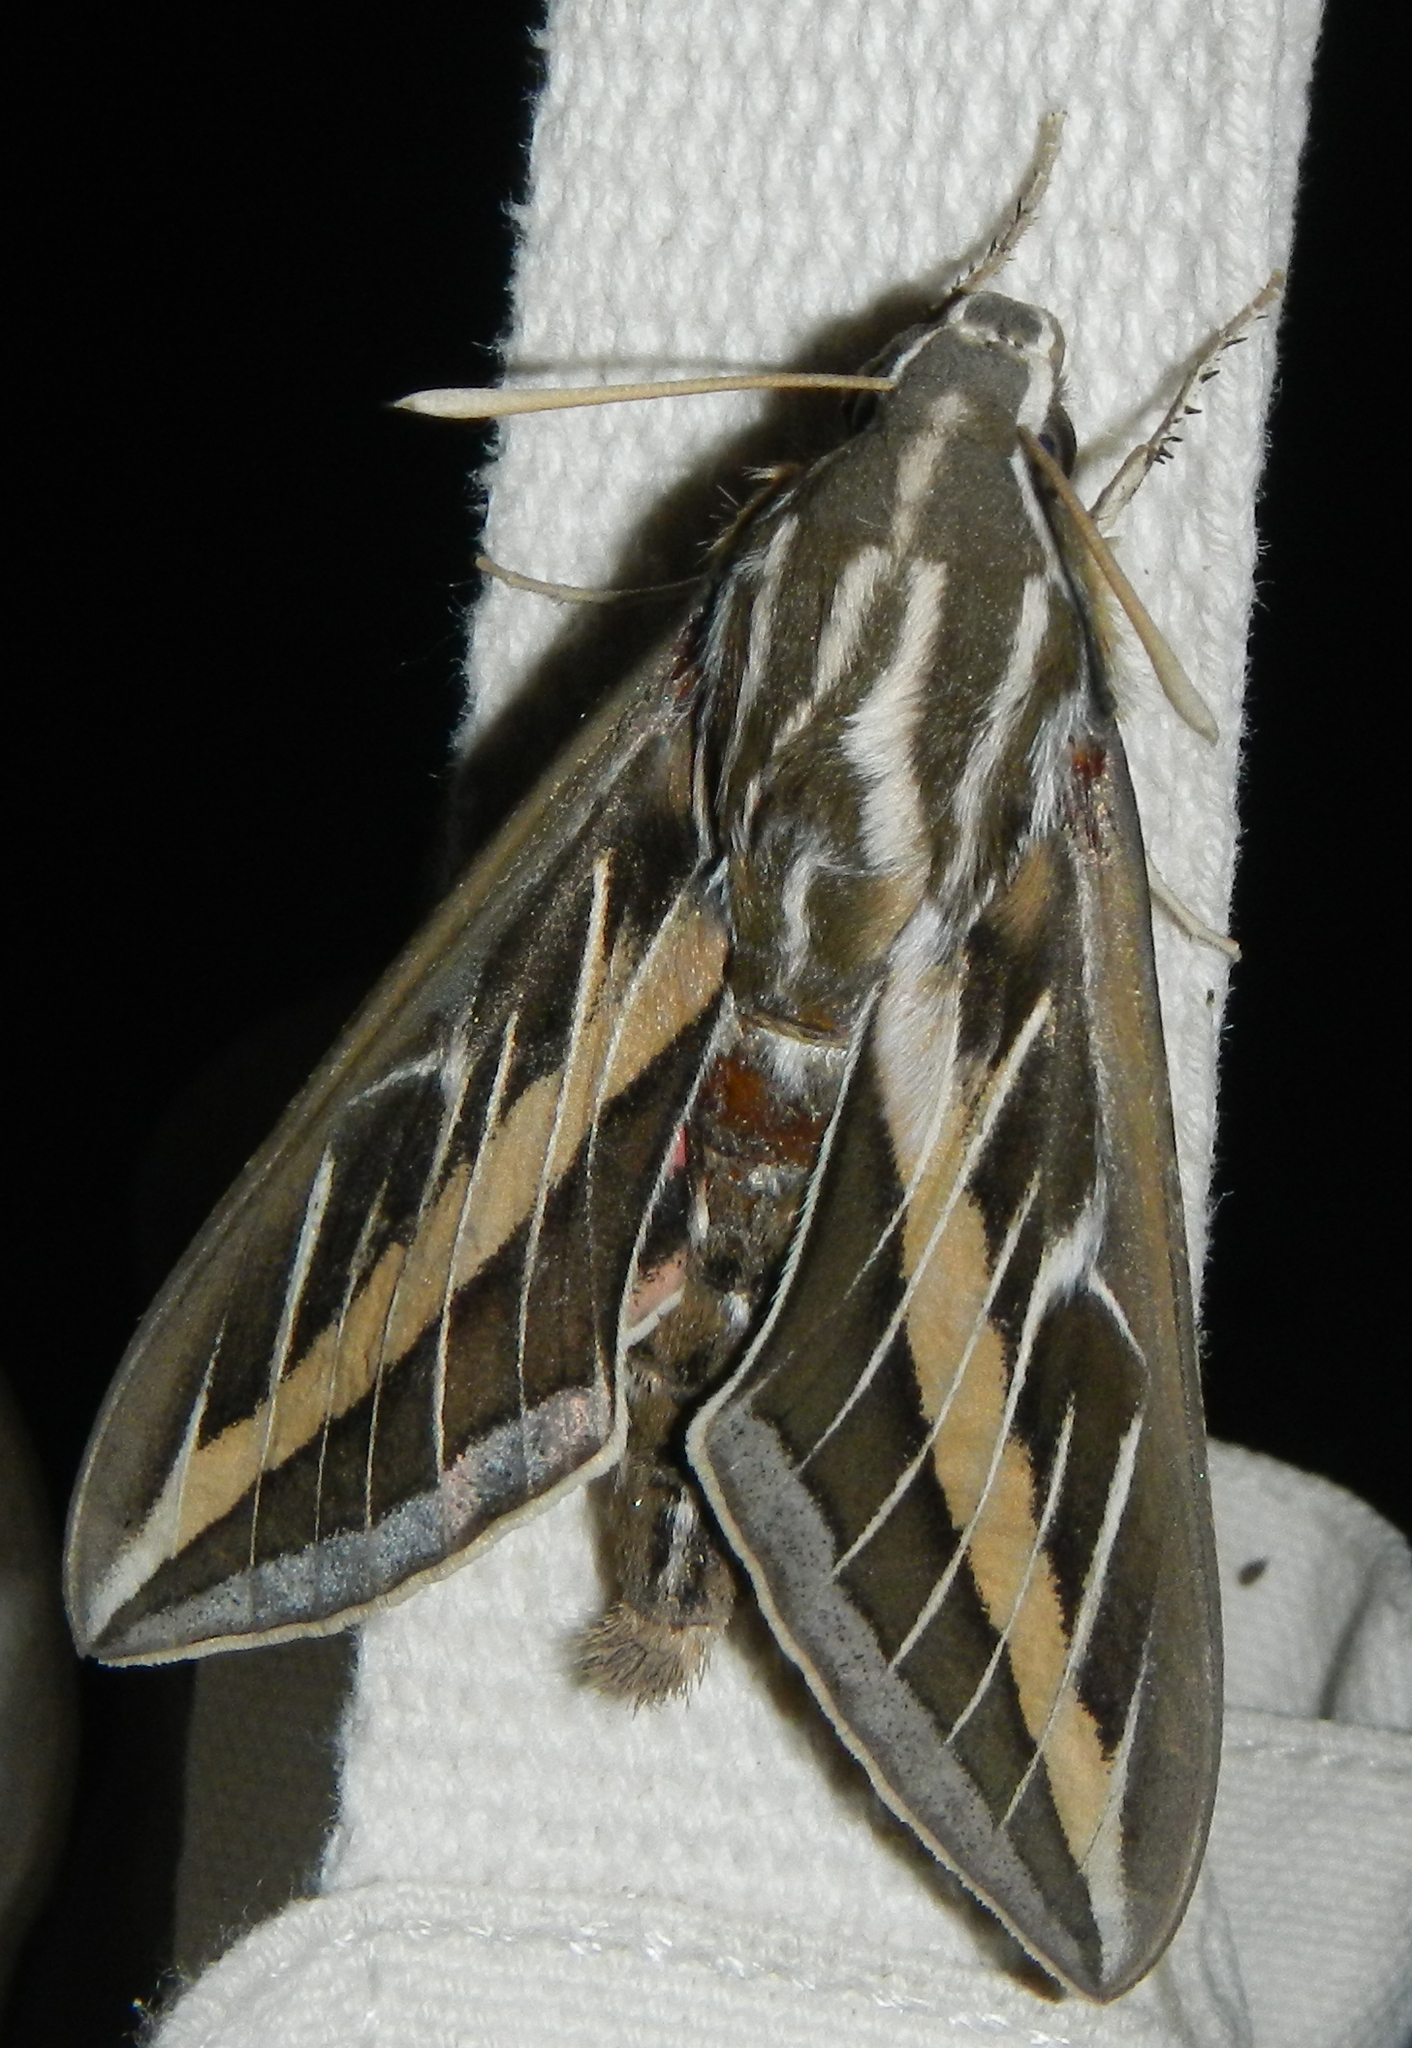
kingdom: Animalia
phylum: Arthropoda
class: Insecta
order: Lepidoptera
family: Sphingidae
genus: Hyles
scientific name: Hyles lineata
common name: White-lined sphinx
